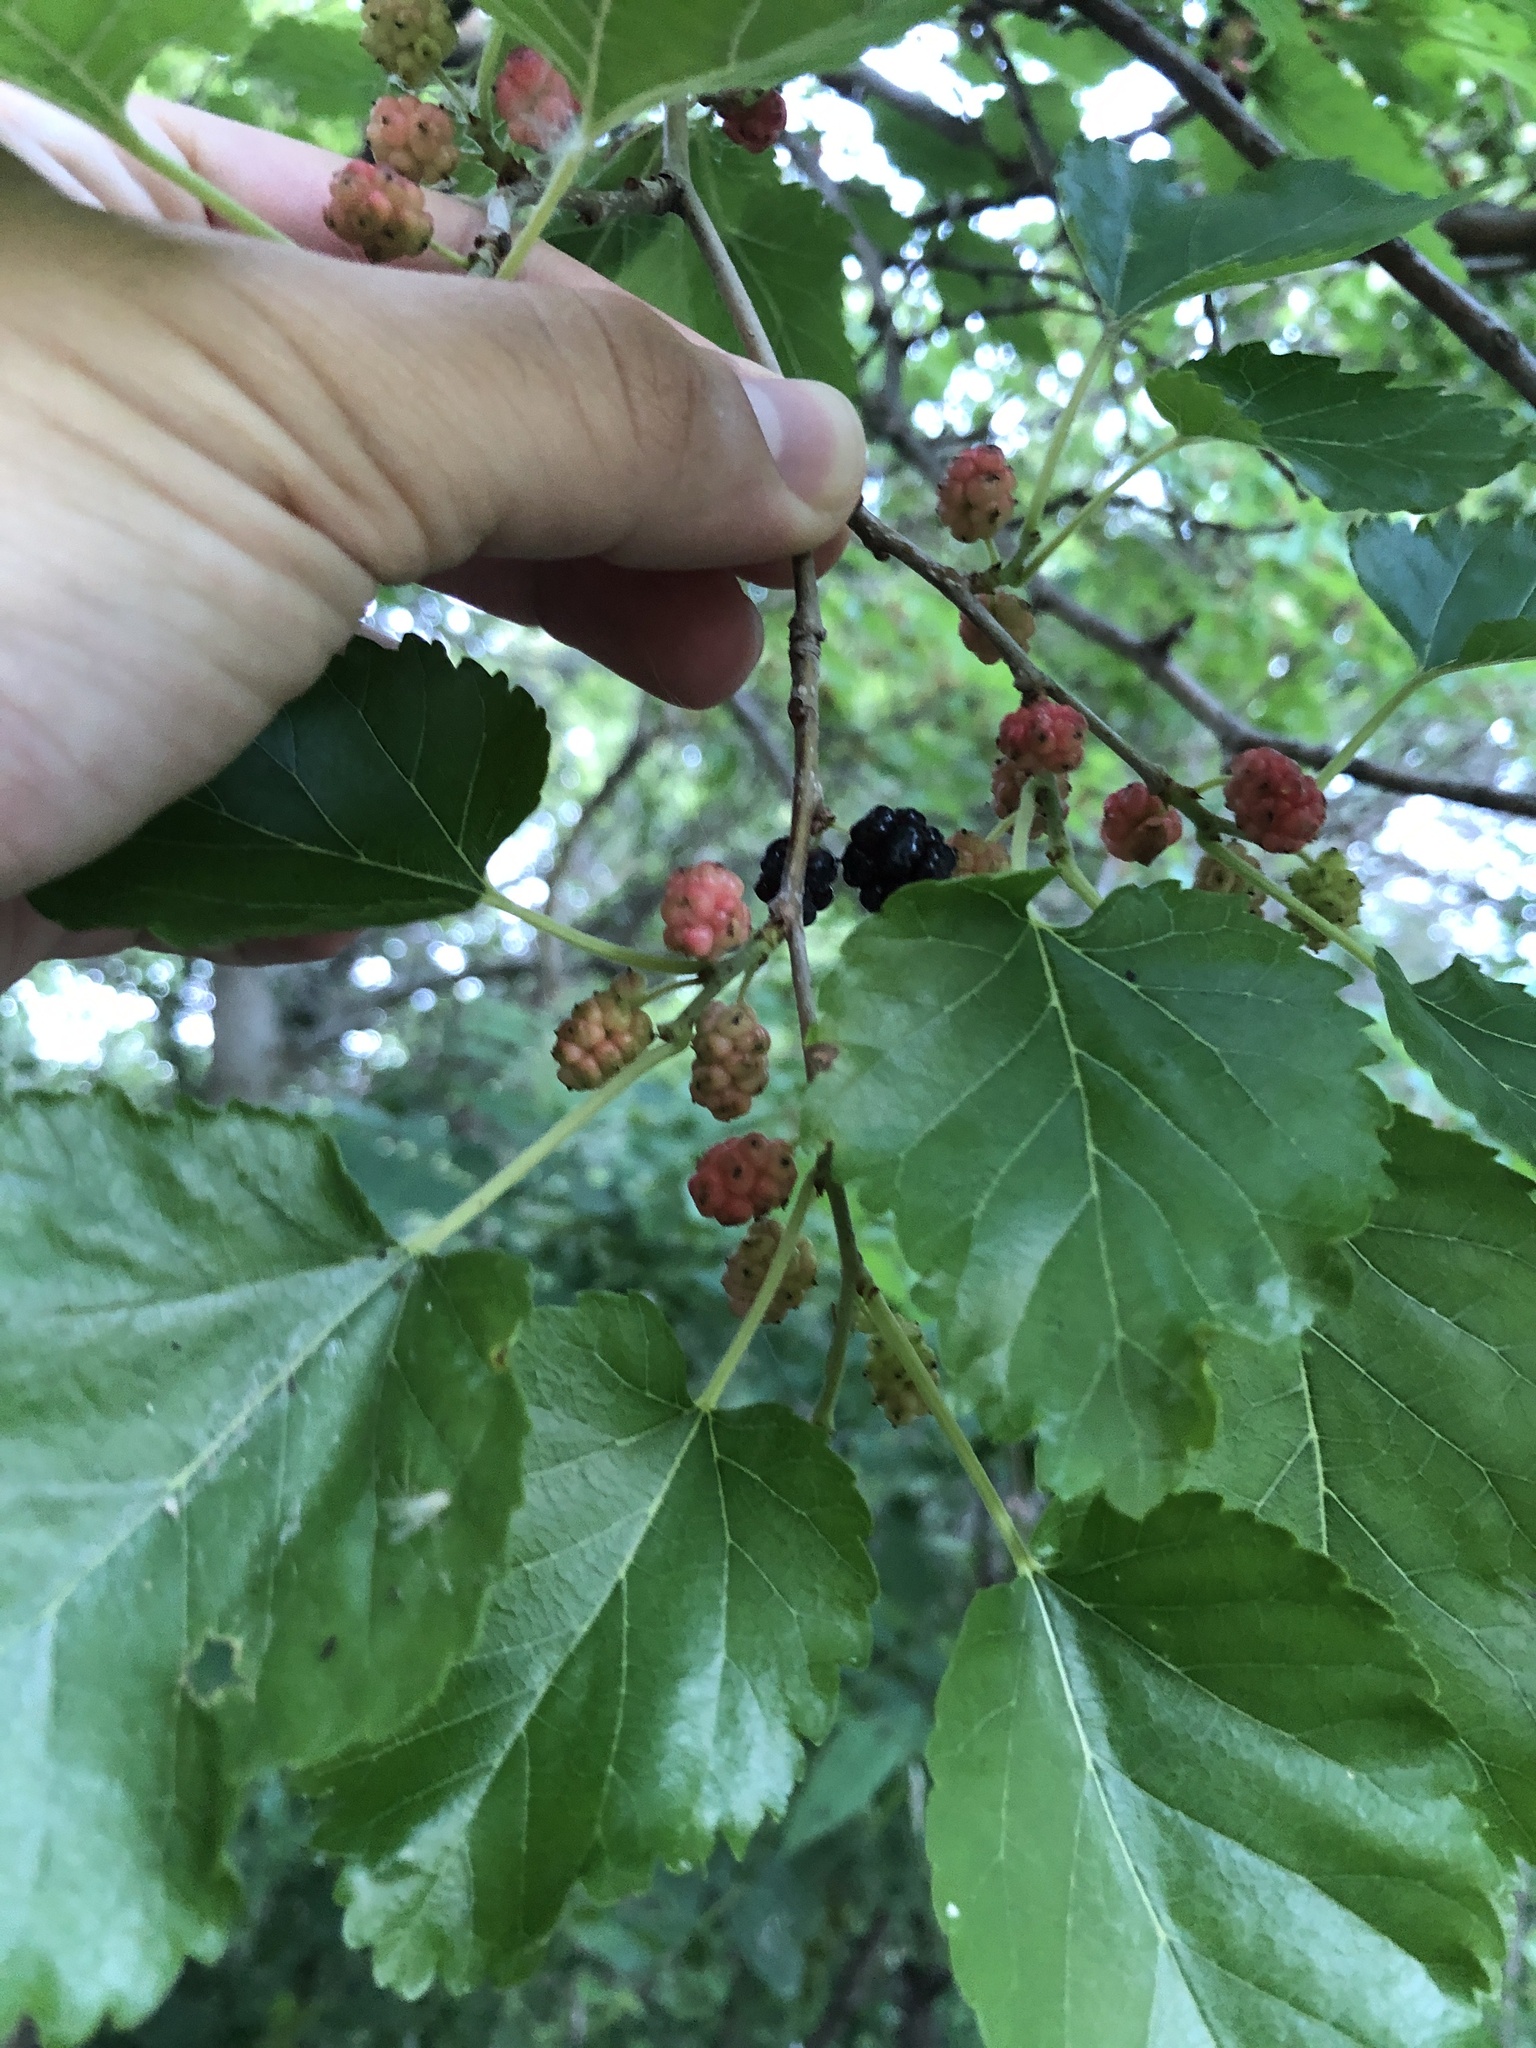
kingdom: Plantae
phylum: Tracheophyta
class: Magnoliopsida
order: Rosales
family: Moraceae
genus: Morus
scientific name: Morus alba
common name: White mulberry
